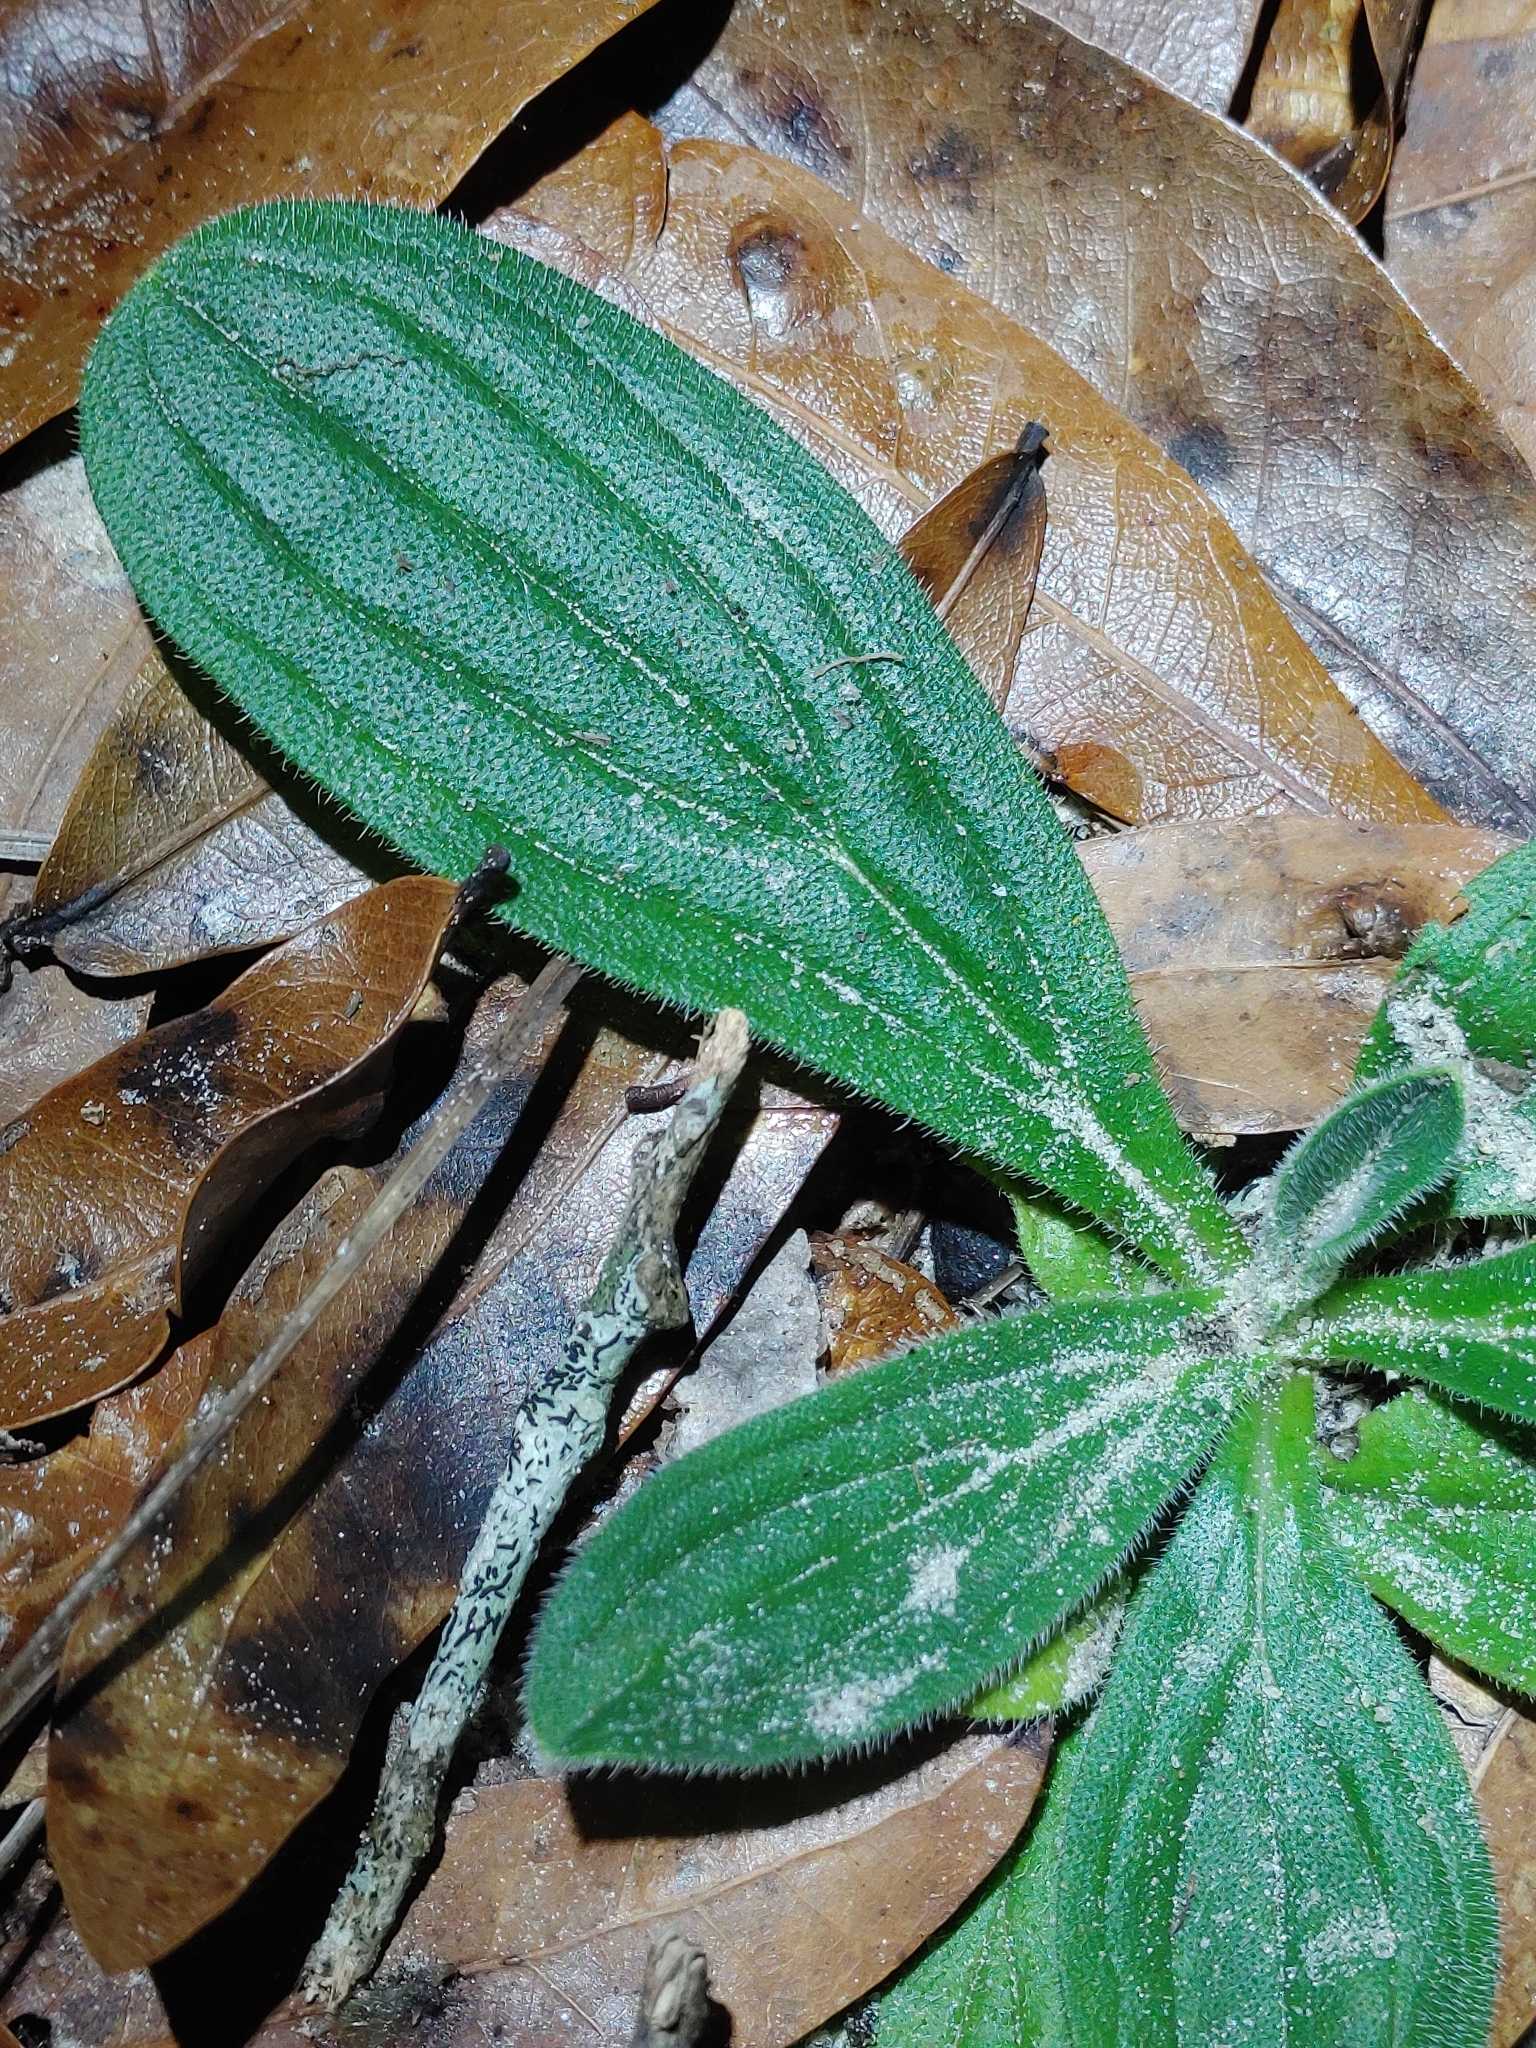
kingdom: Plantae
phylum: Tracheophyta
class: Magnoliopsida
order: Boraginales
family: Boraginaceae
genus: Lithospermum
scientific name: Lithospermum virginianum
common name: Eastern false gromwell
